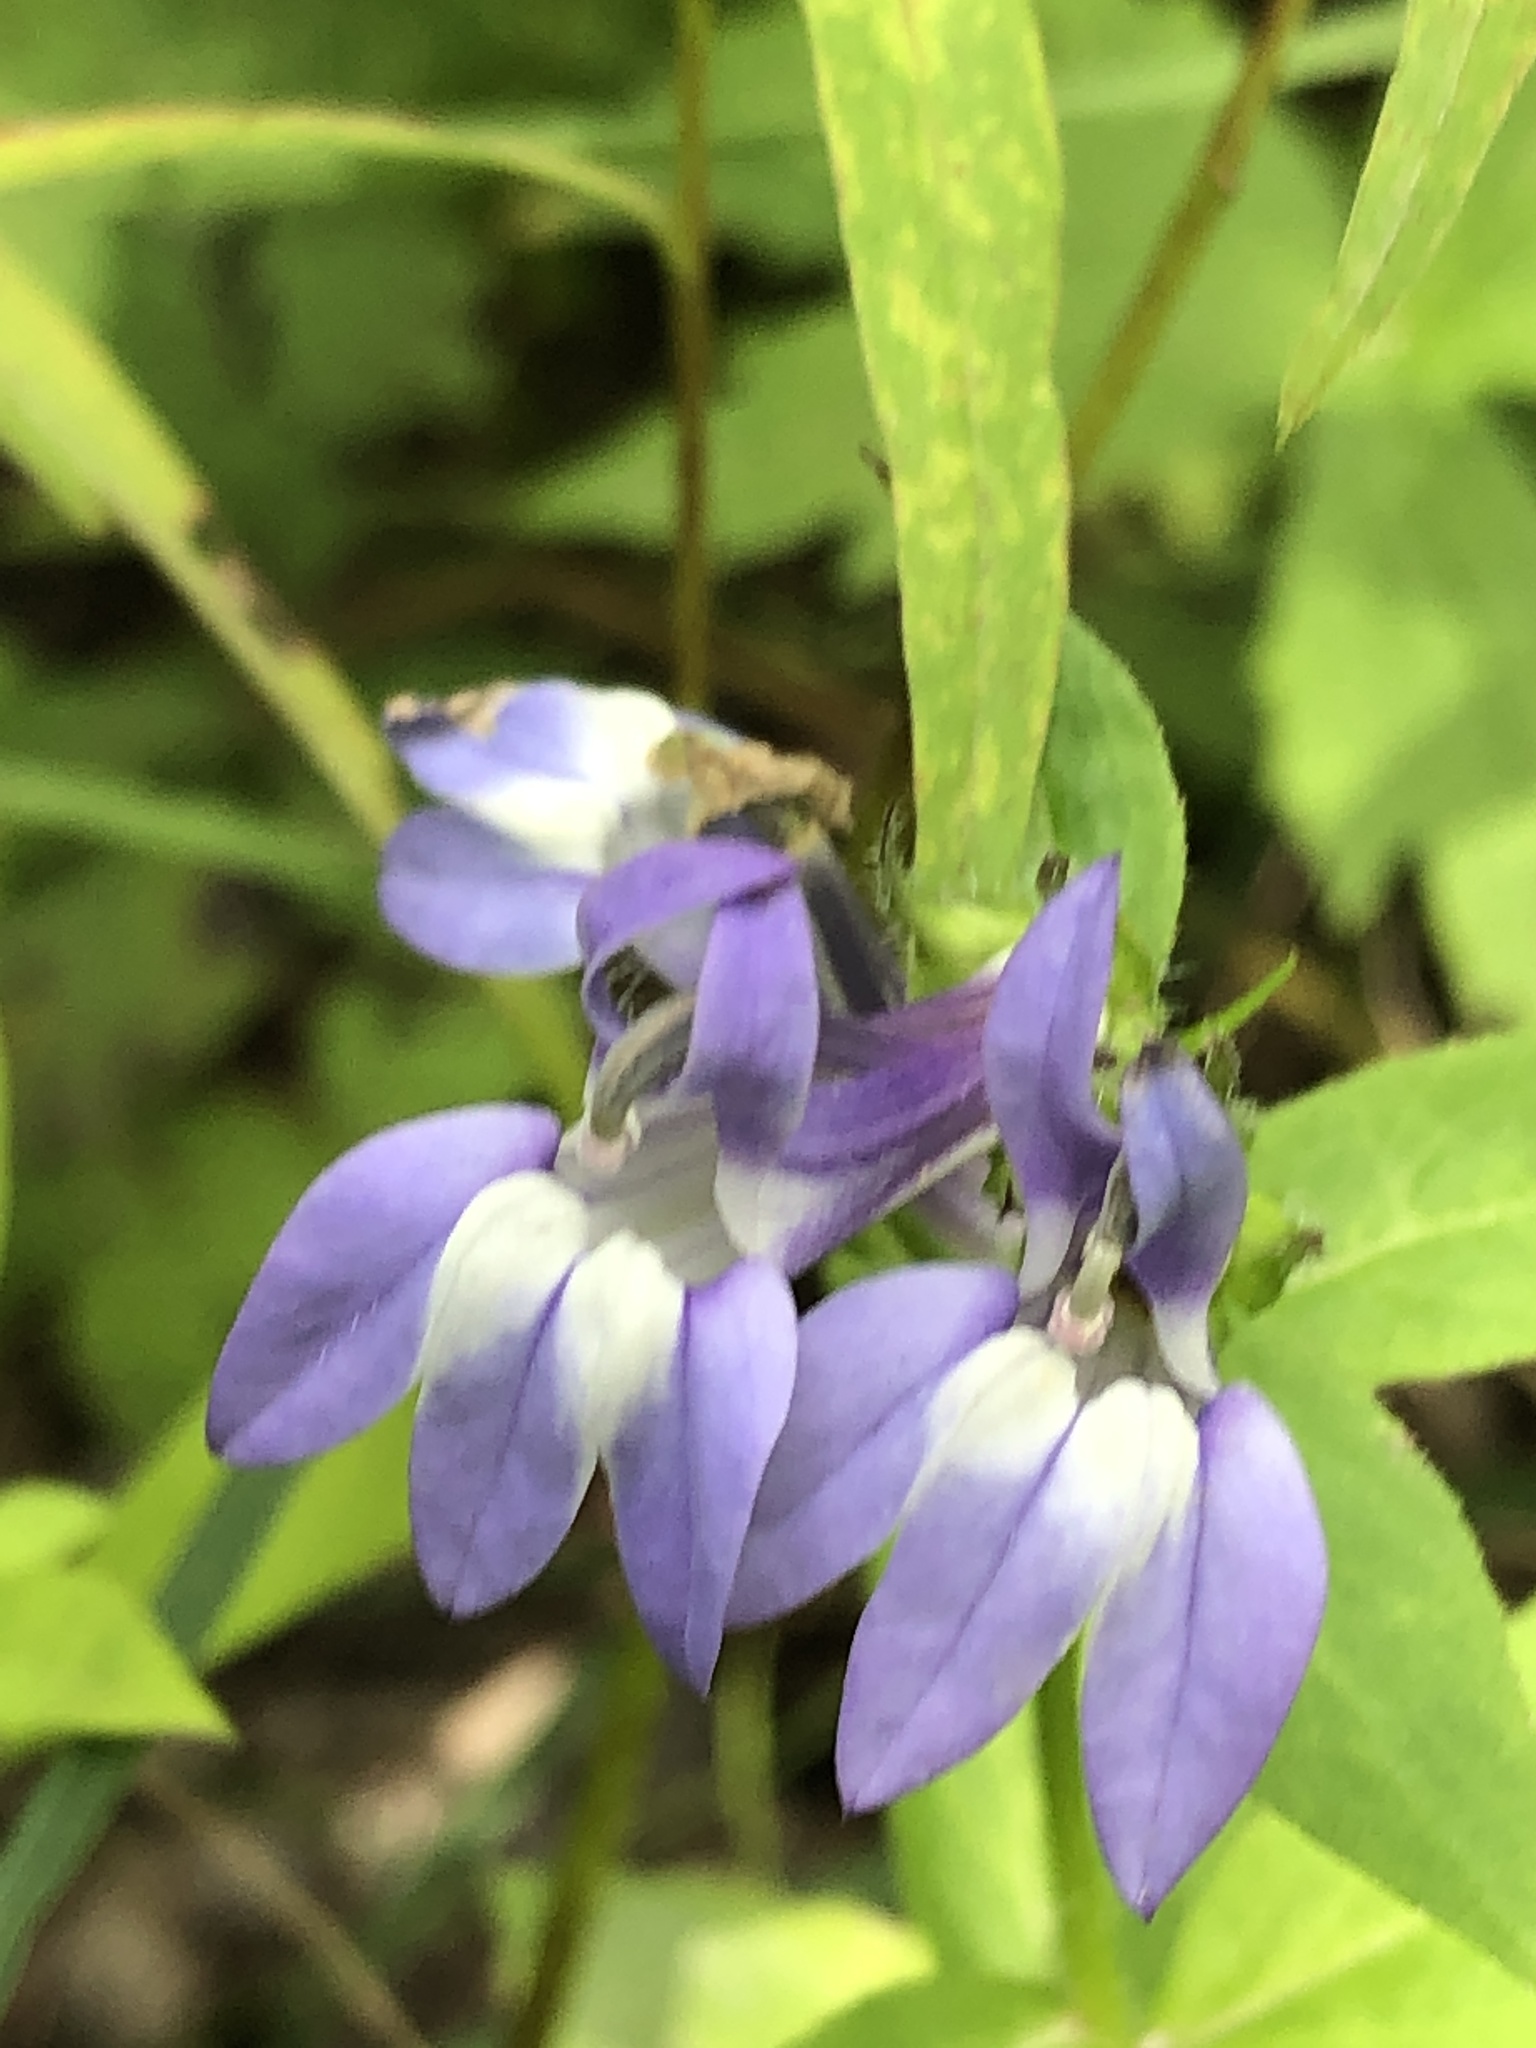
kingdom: Plantae
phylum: Tracheophyta
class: Magnoliopsida
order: Asterales
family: Campanulaceae
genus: Lobelia
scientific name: Lobelia siphilitica
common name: Great lobelia
